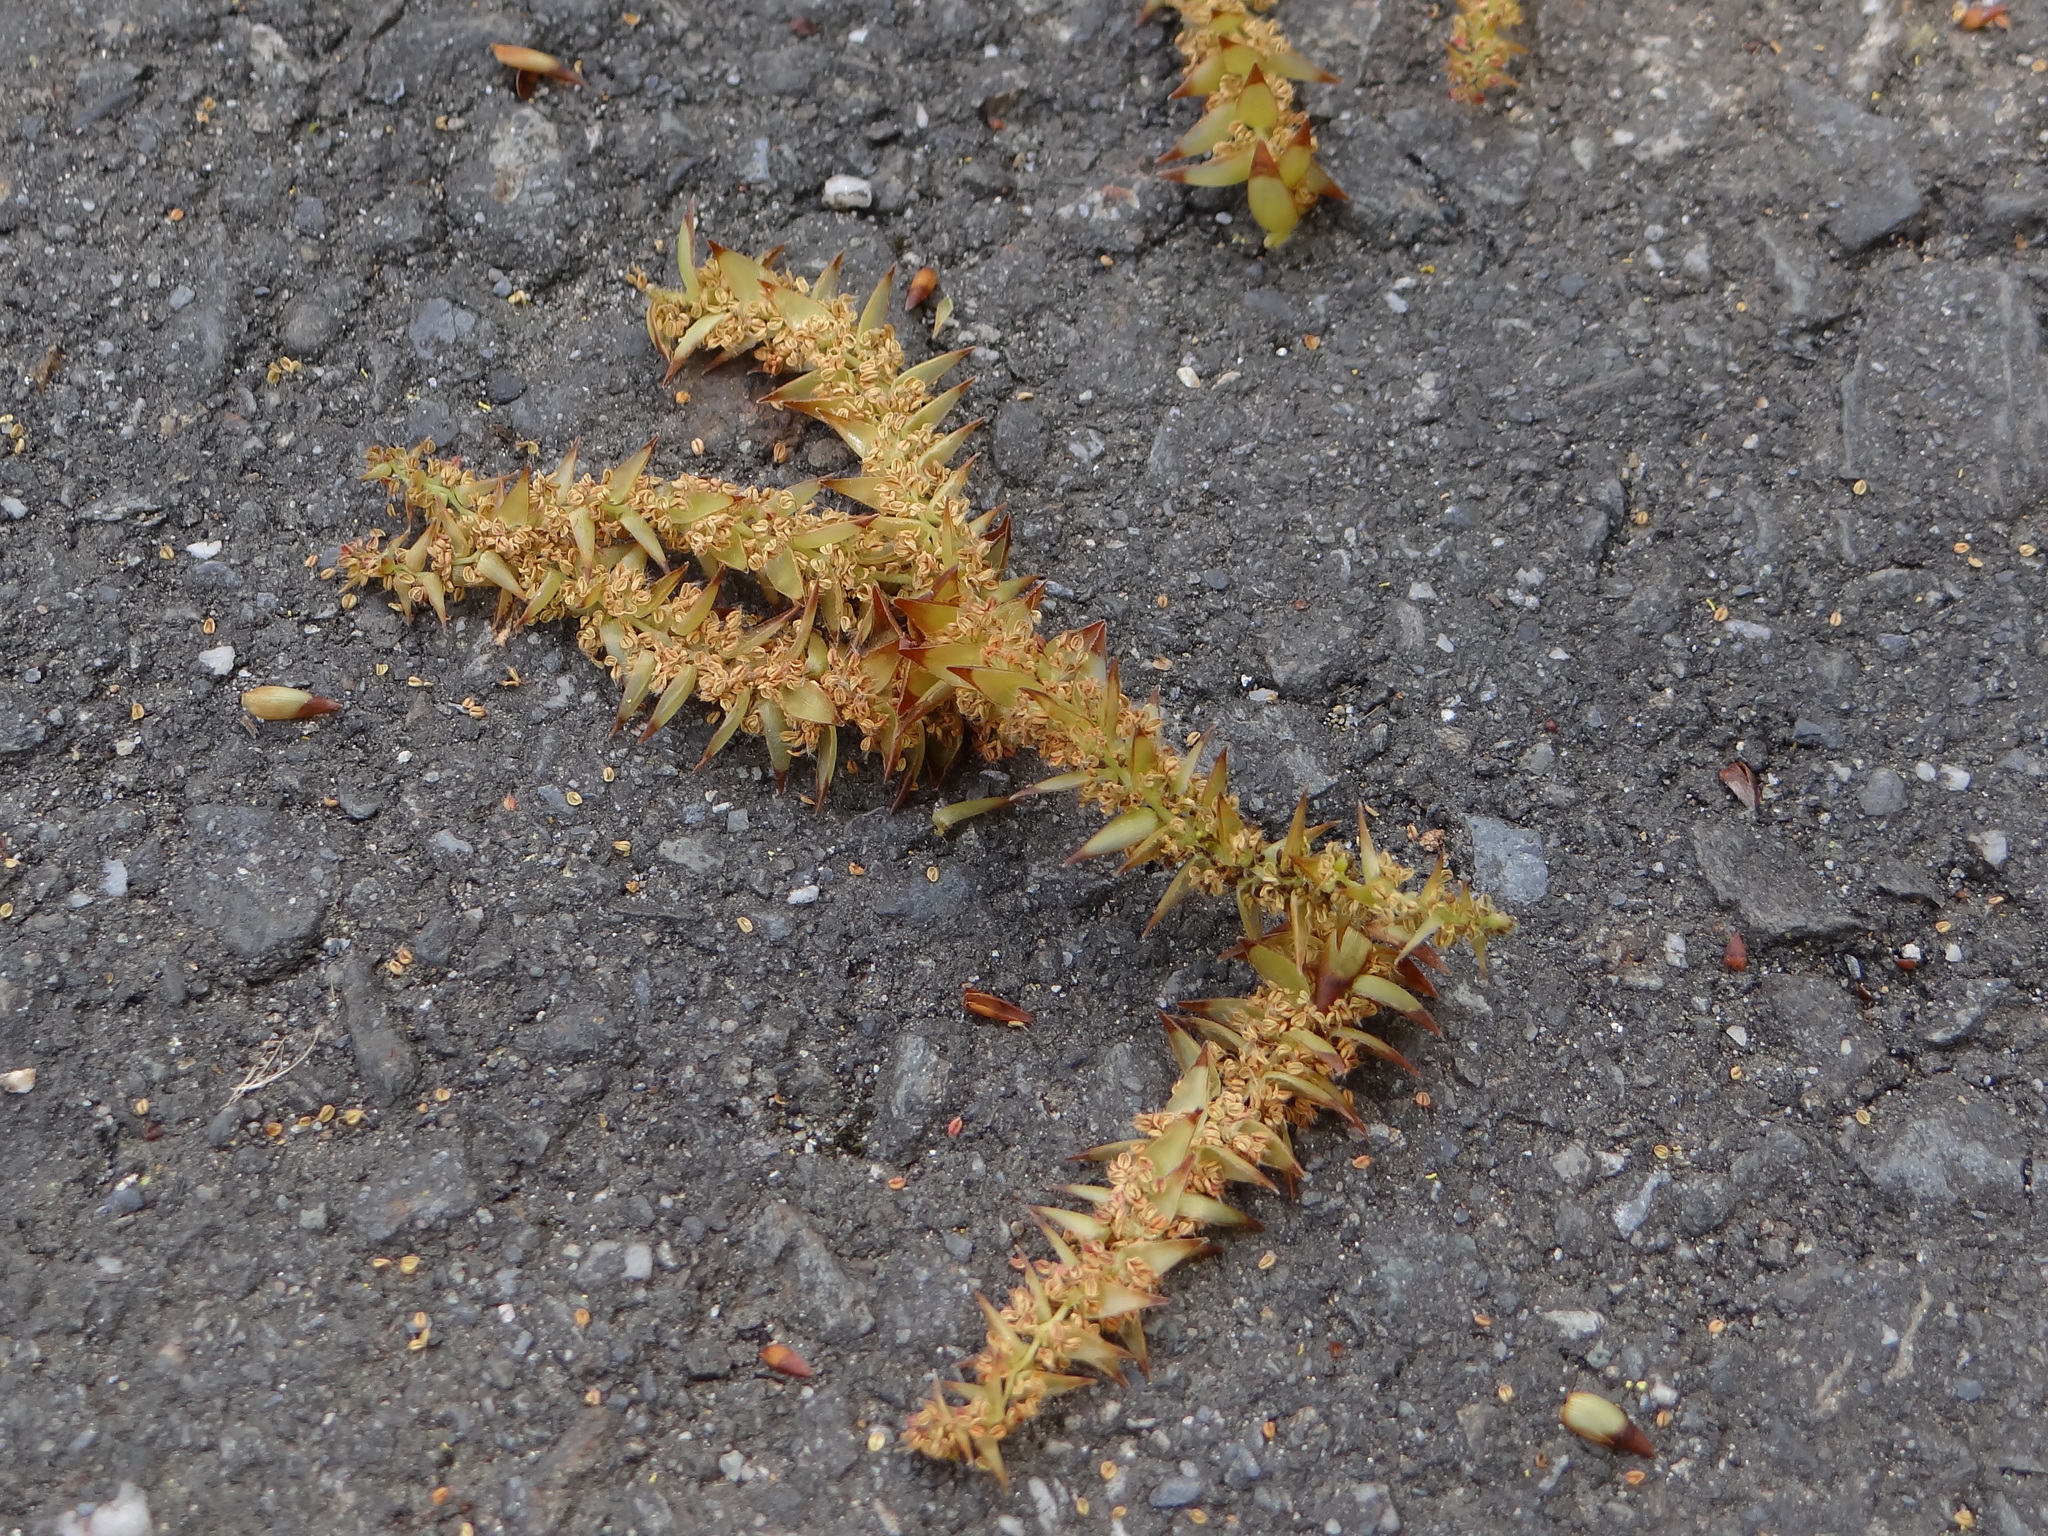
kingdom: Plantae
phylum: Tracheophyta
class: Magnoliopsida
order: Fagales
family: Betulaceae
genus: Carpinus
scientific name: Carpinus kawakamii
